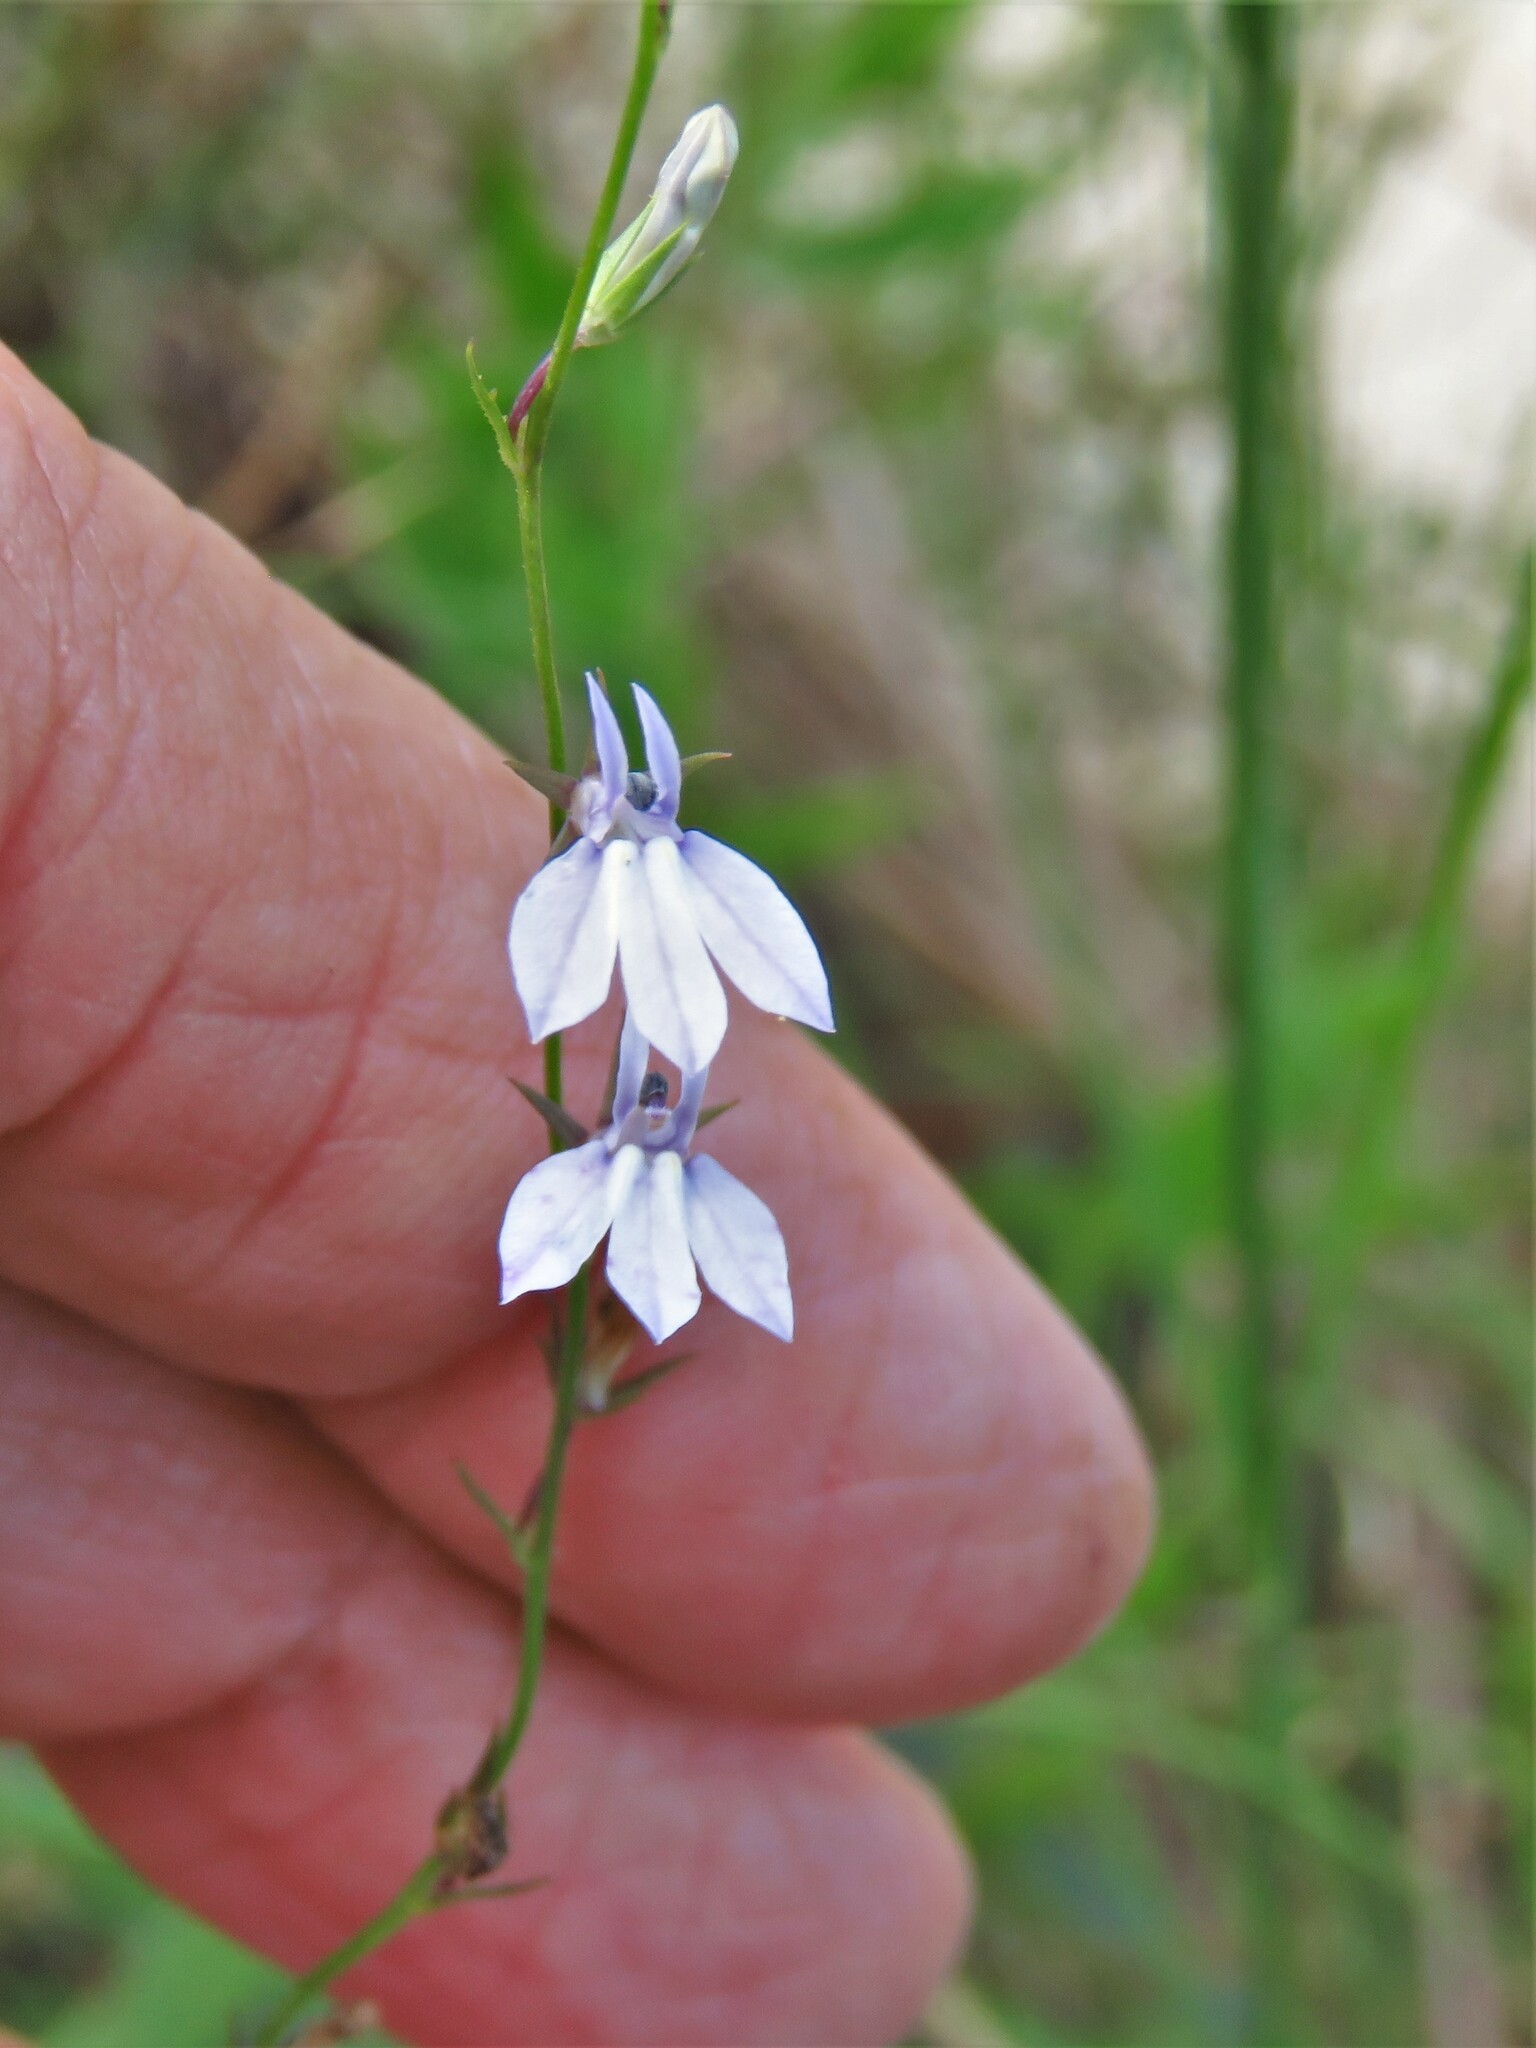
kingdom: Plantae
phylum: Tracheophyta
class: Magnoliopsida
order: Asterales
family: Campanulaceae
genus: Lobelia
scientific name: Lobelia nuttallii
